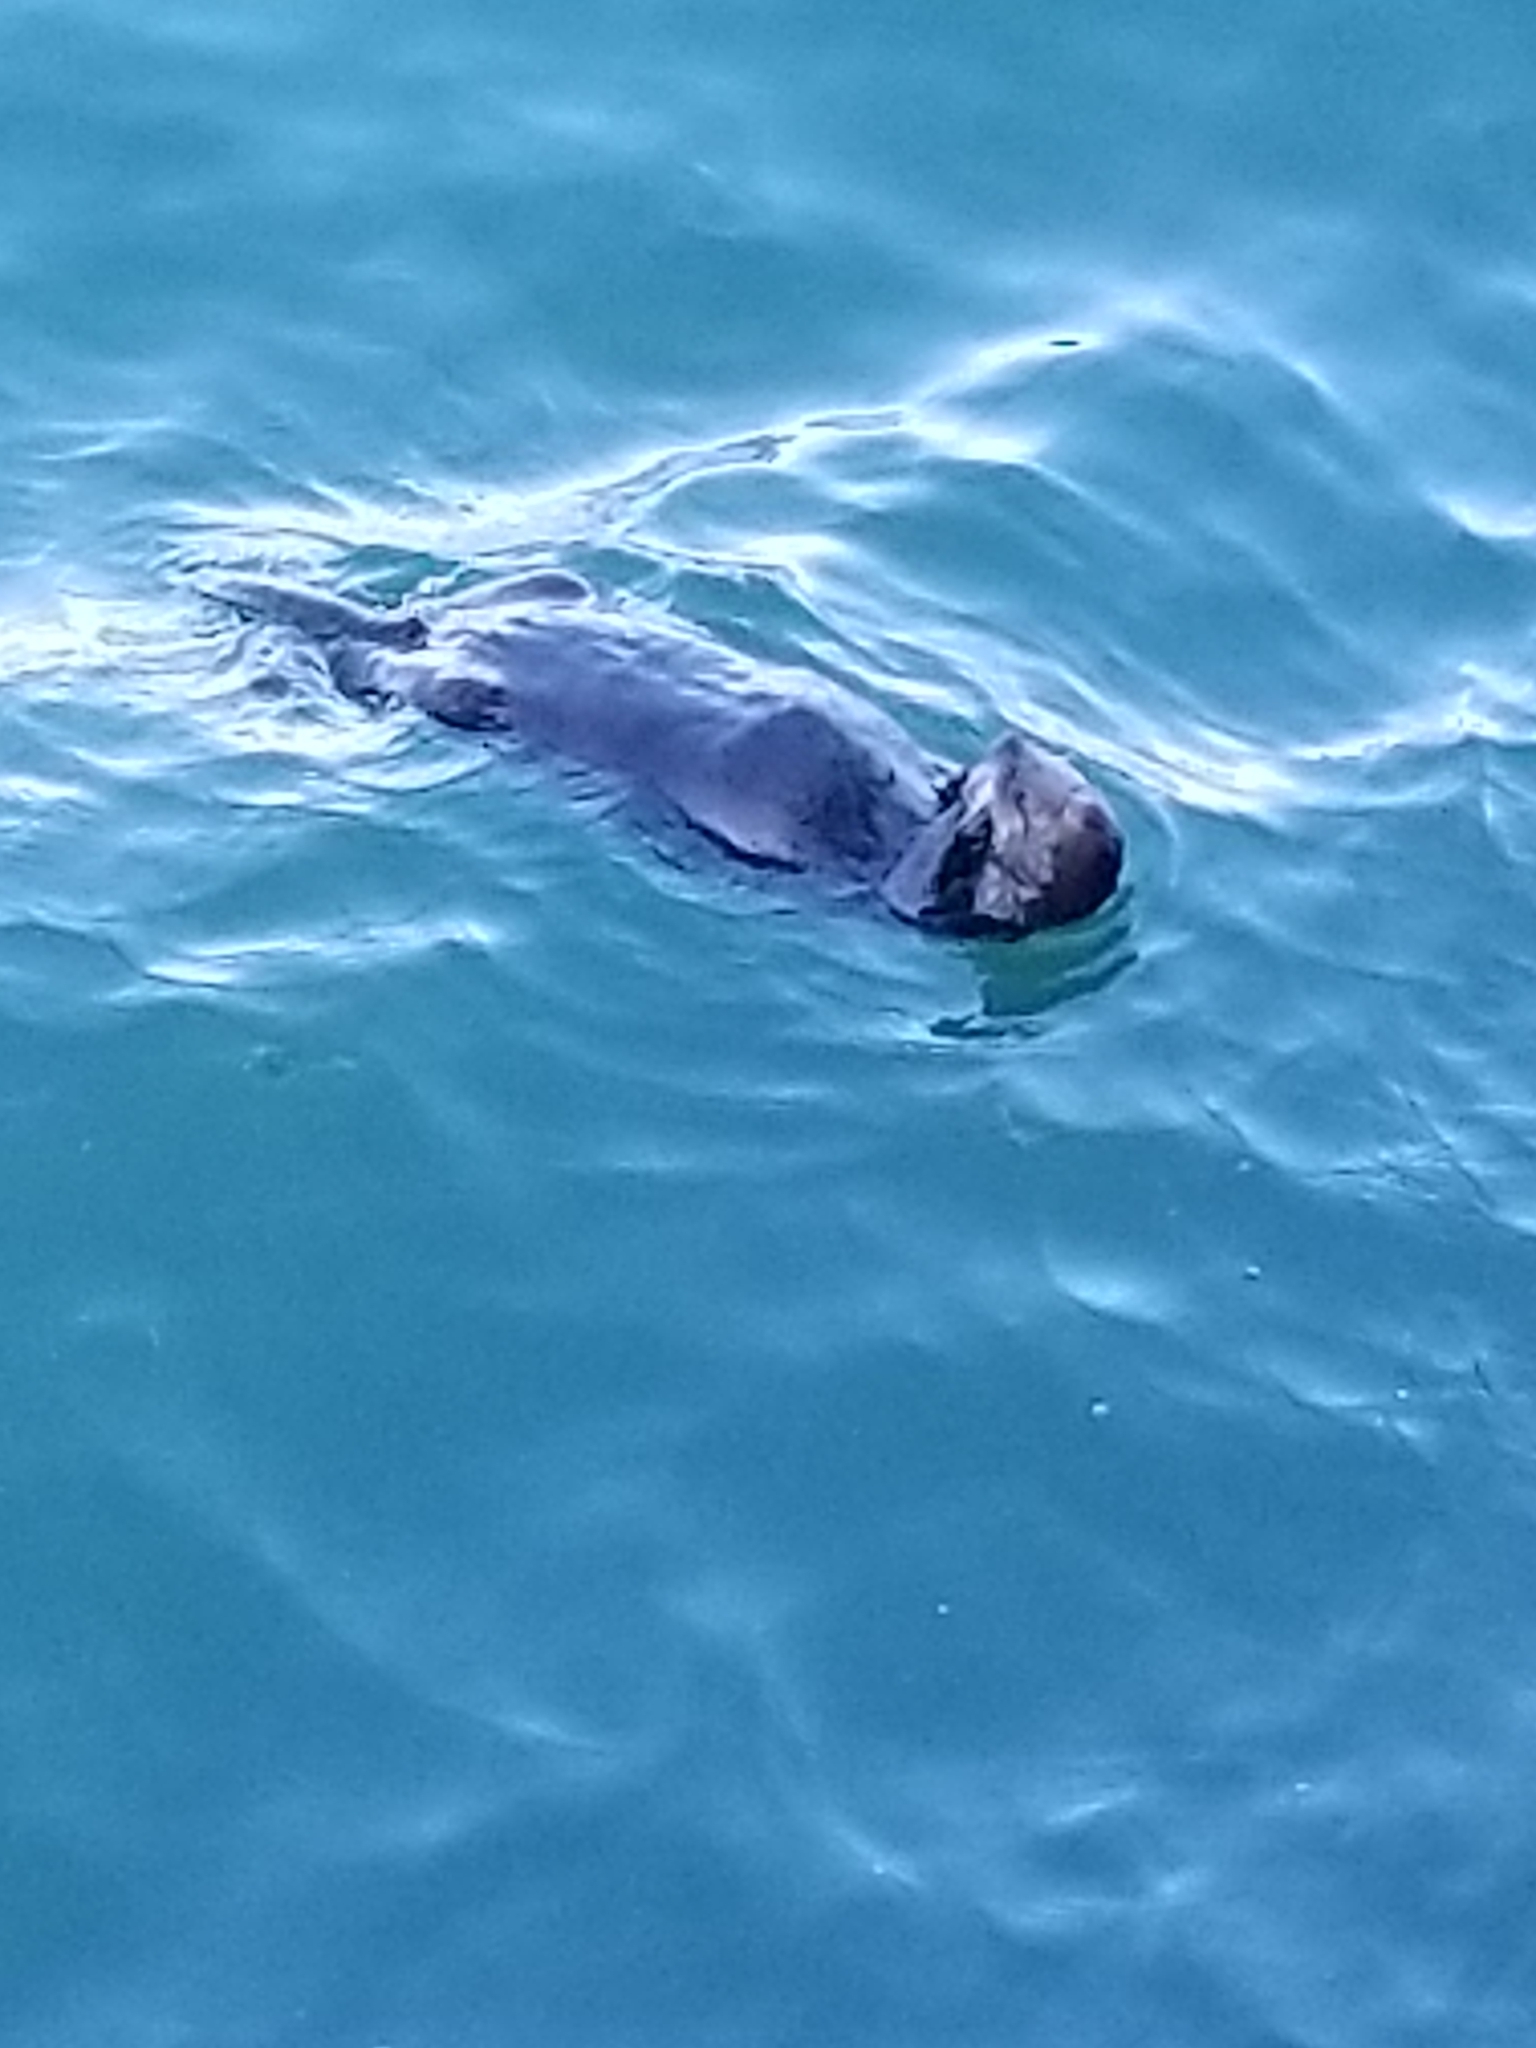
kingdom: Animalia
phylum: Chordata
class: Mammalia
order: Carnivora
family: Mustelidae
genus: Enhydra
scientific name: Enhydra lutris
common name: Sea otter
